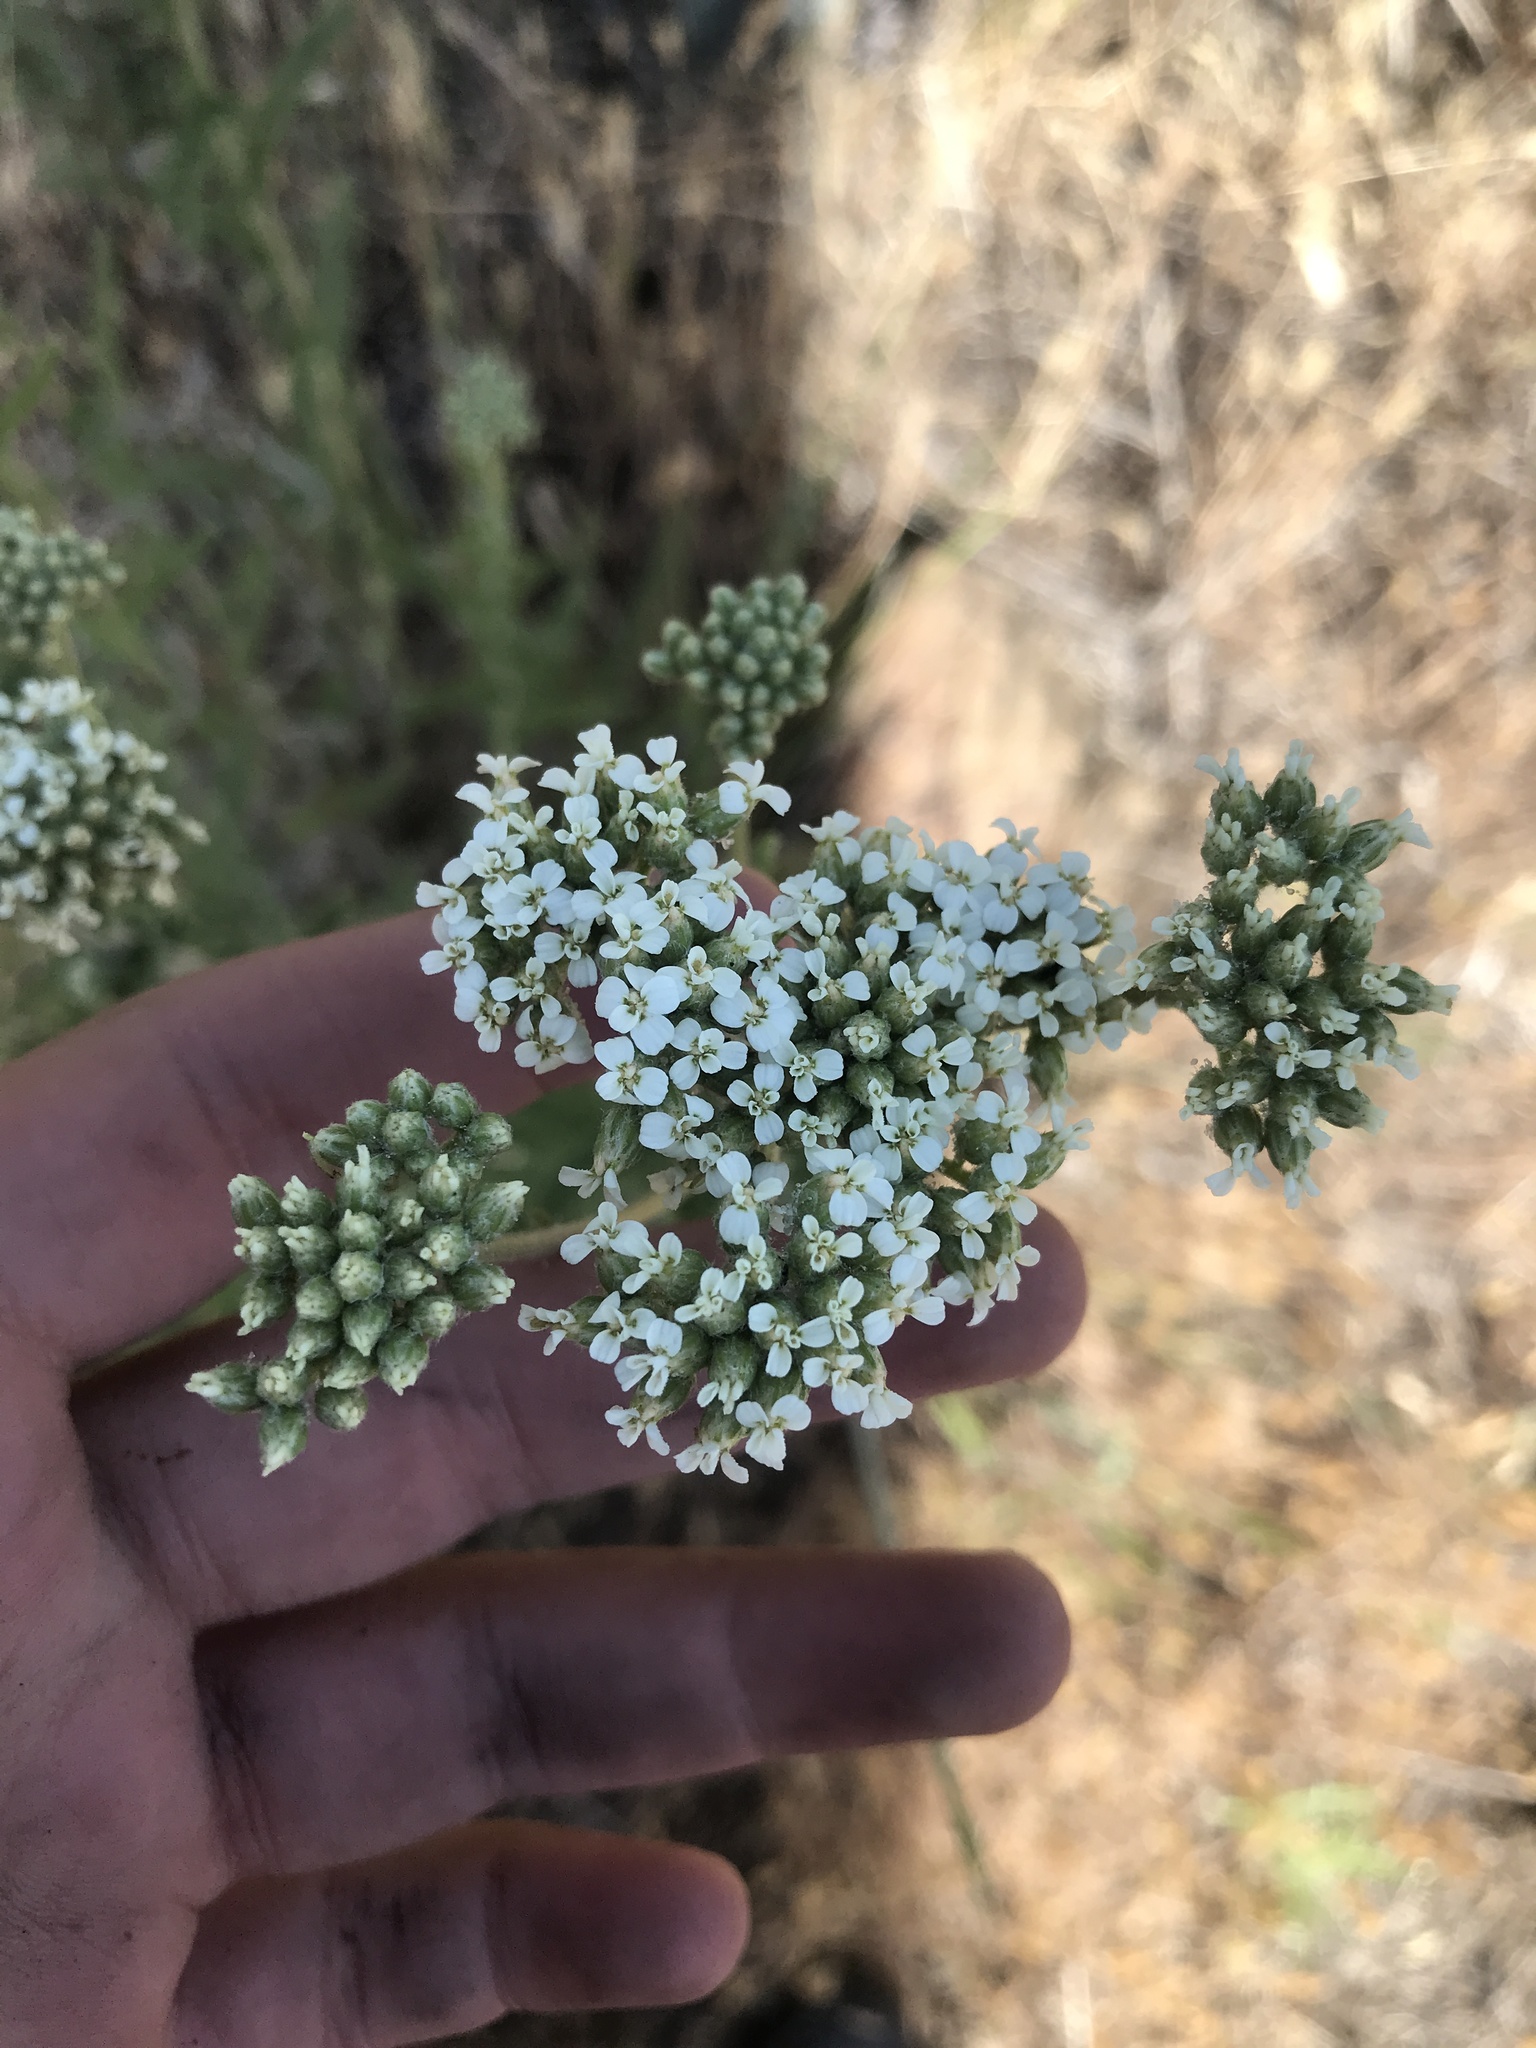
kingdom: Plantae
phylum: Tracheophyta
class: Magnoliopsida
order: Asterales
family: Asteraceae
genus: Achillea
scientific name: Achillea millefolium
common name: Yarrow
